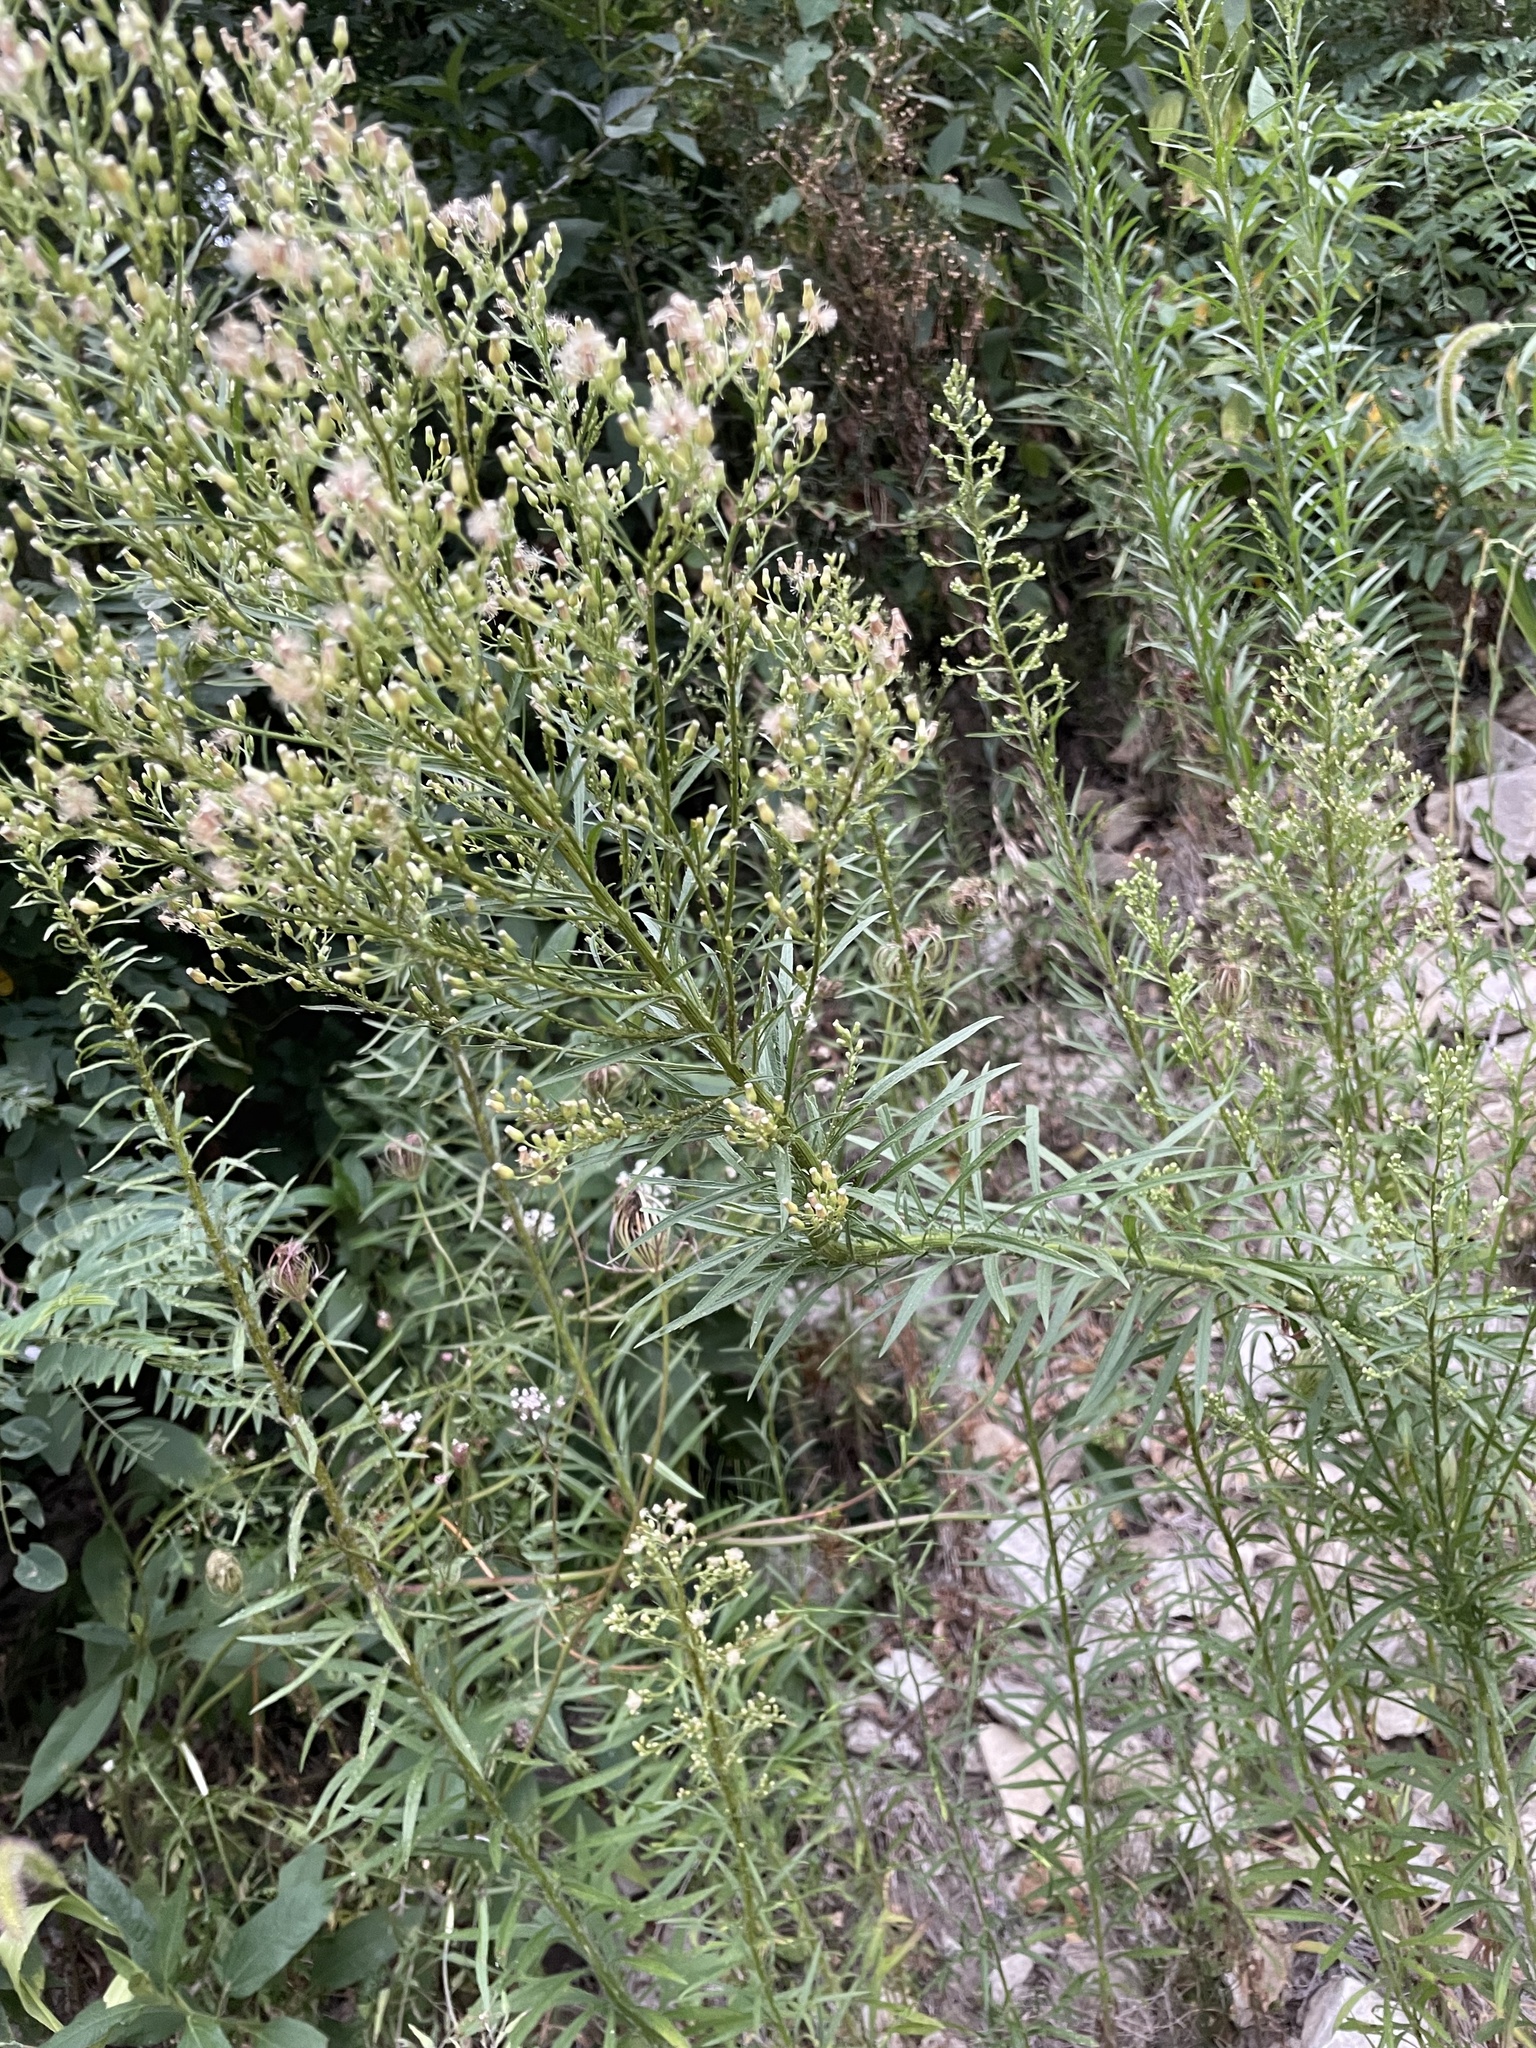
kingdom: Plantae
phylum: Tracheophyta
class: Magnoliopsida
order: Asterales
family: Asteraceae
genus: Erigeron
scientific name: Erigeron canadensis
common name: Canadian fleabane
